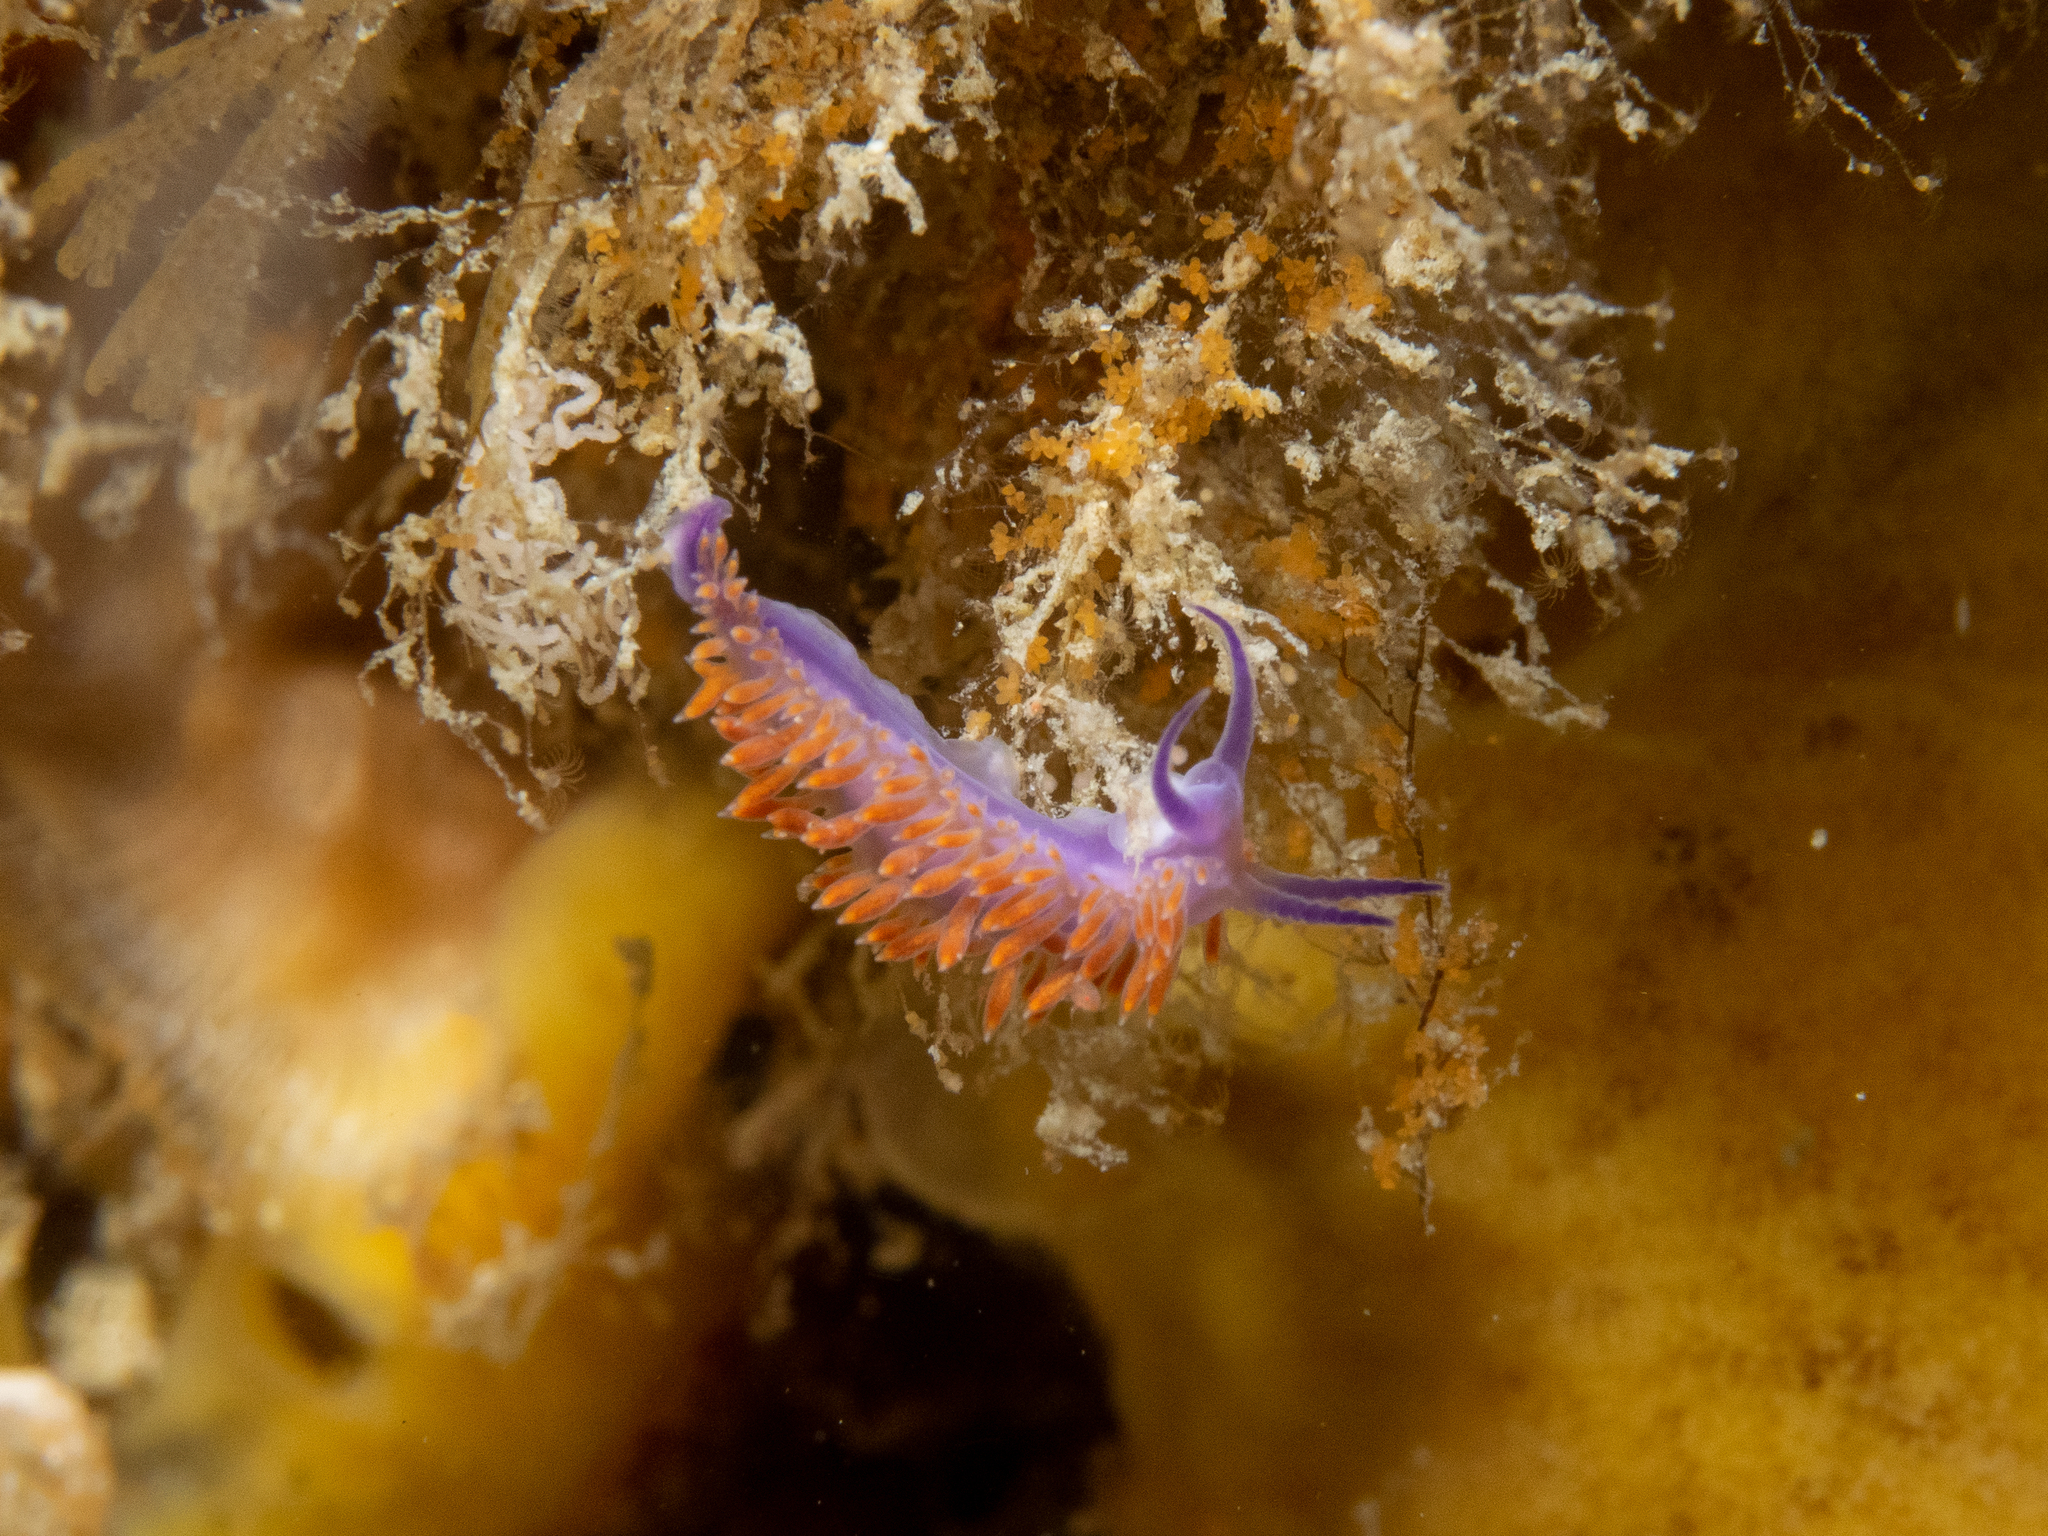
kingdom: Animalia
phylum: Mollusca
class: Gastropoda
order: Nudibranchia
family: Flabellinidae
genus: Flabellina
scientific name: Flabellina
